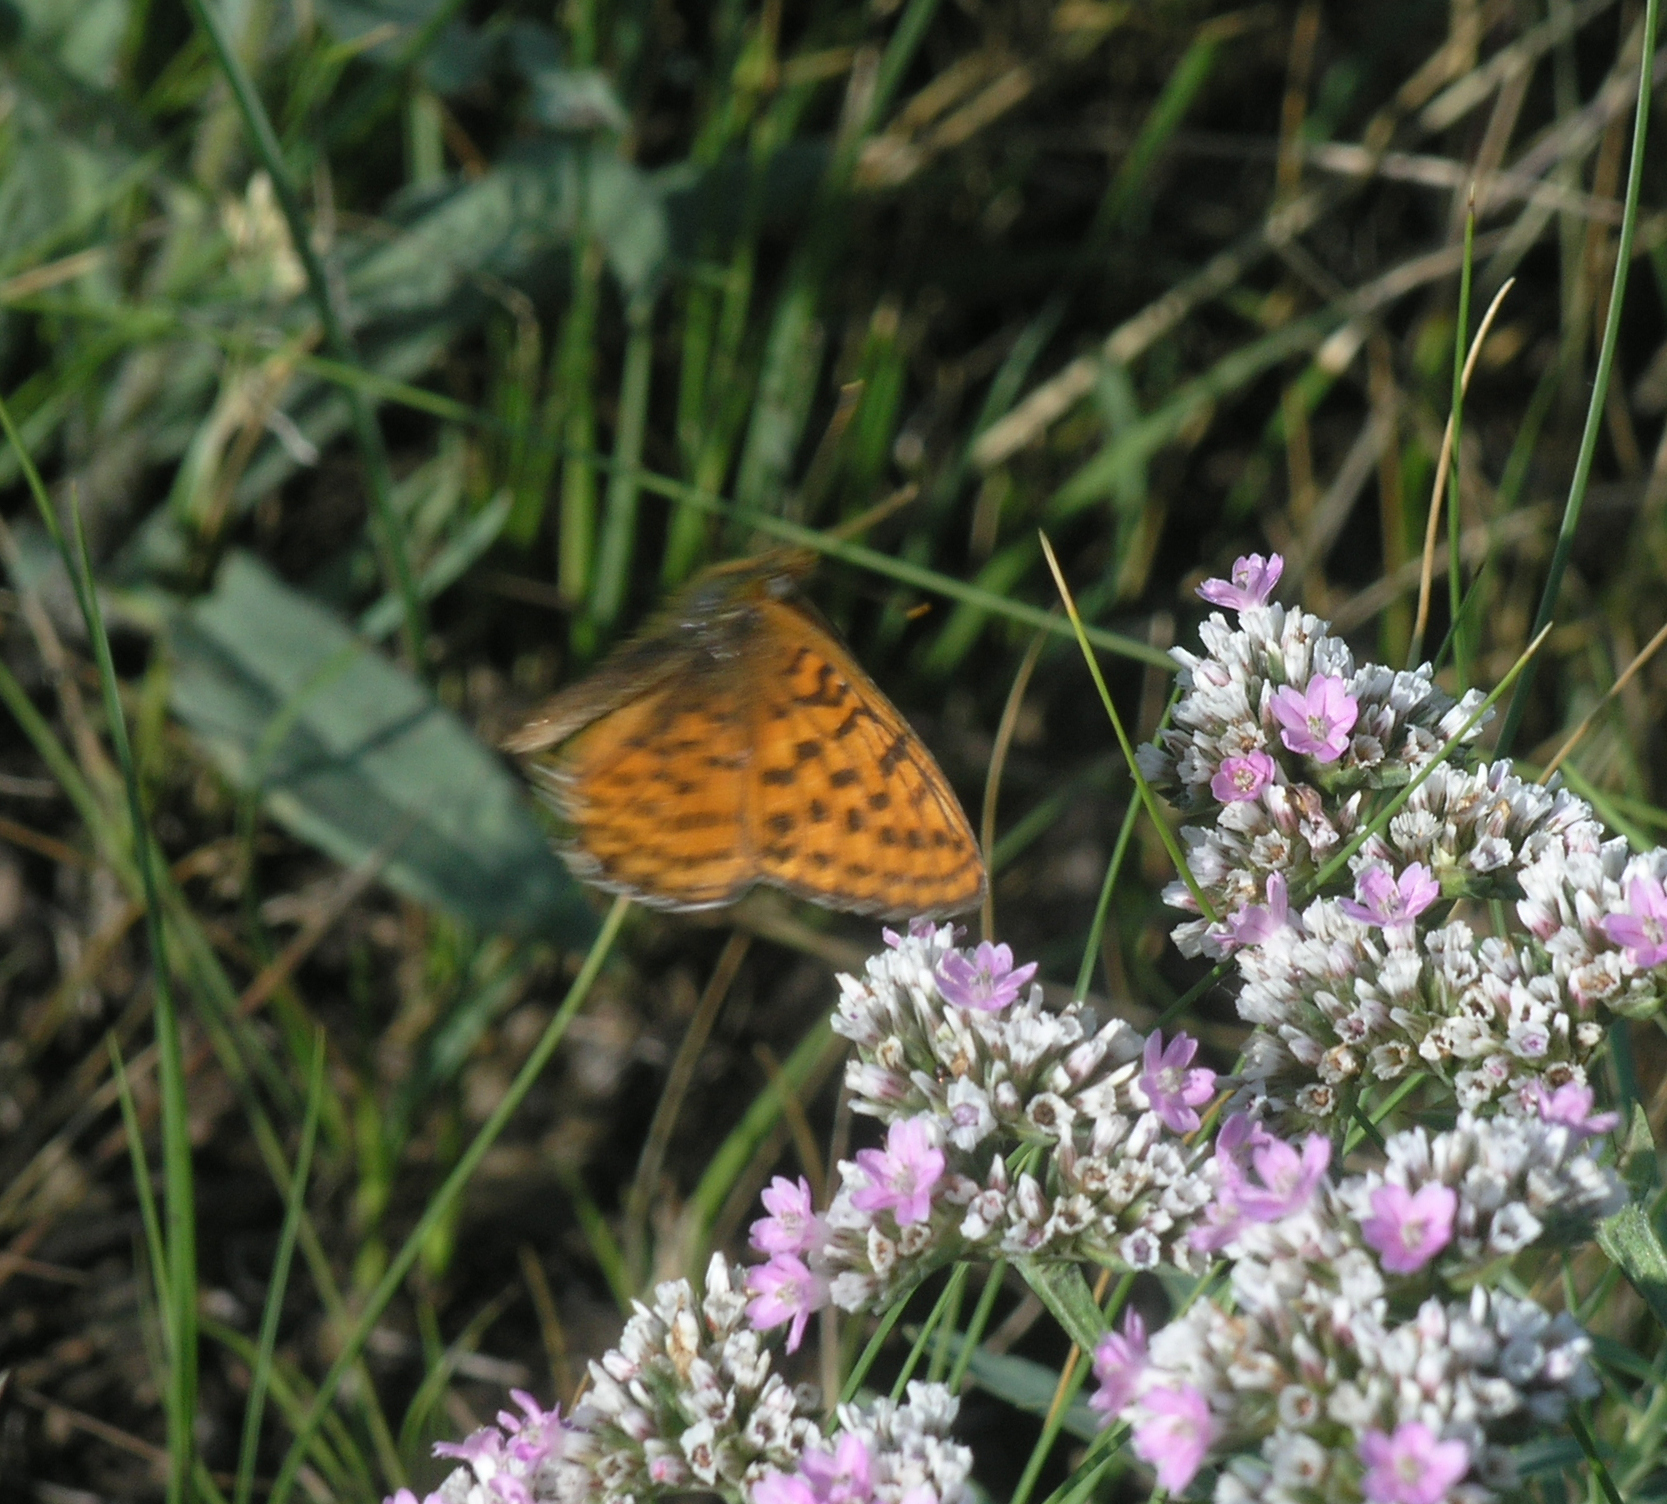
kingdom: Animalia
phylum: Arthropoda
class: Insecta
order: Lepidoptera
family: Nymphalidae
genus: Brenthis
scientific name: Brenthis hecate
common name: Twin-spot fritillary
